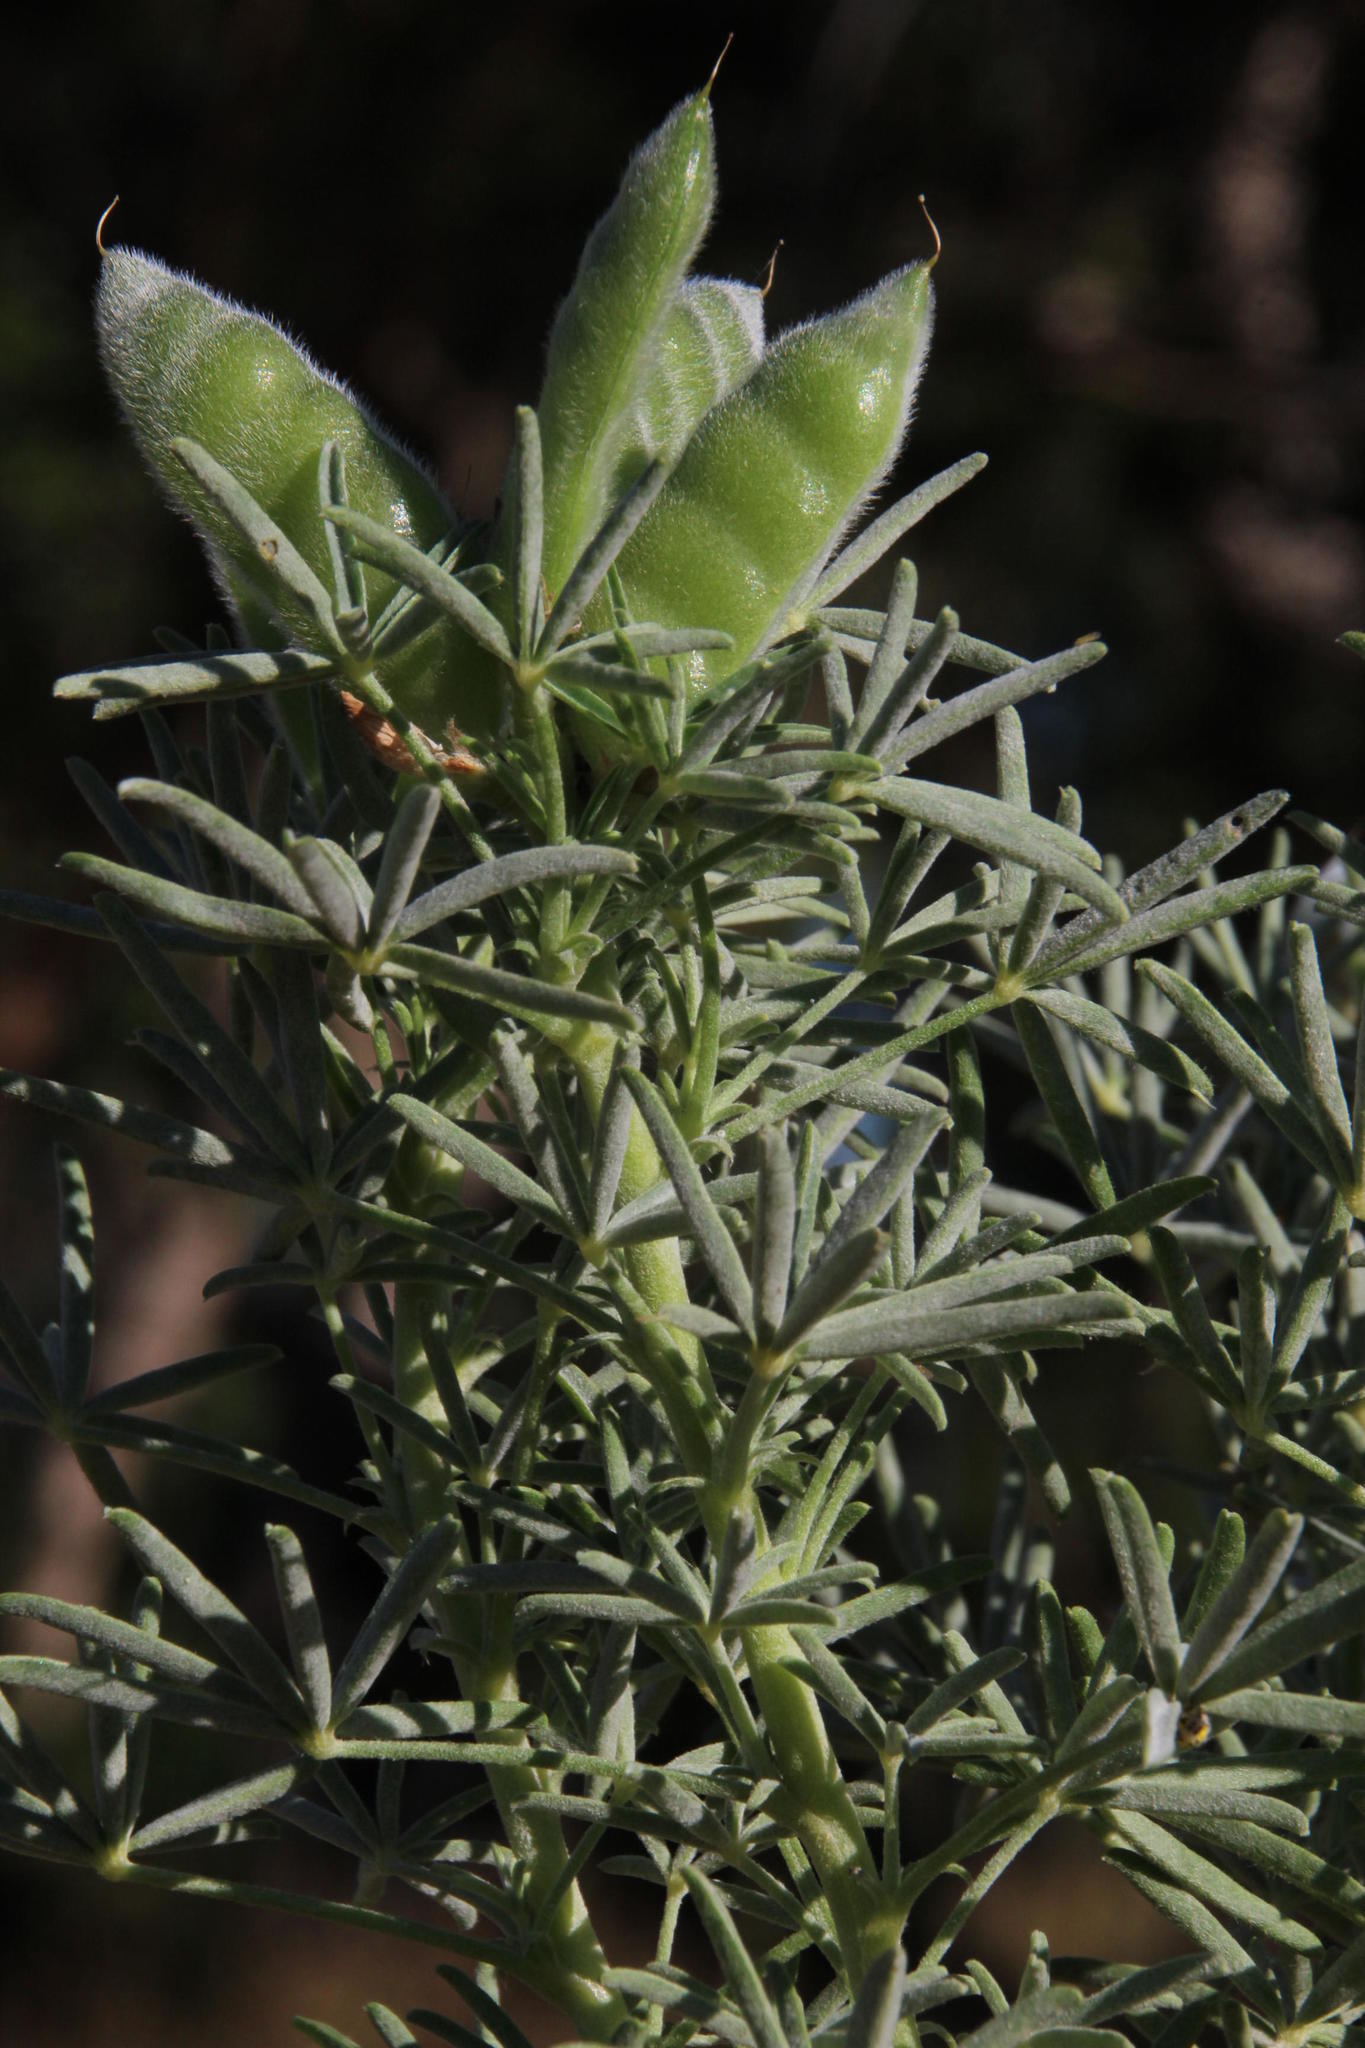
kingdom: Plantae
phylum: Tracheophyta
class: Magnoliopsida
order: Fabales
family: Fabaceae
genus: Lupinus
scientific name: Lupinus angustifolius
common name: Narrow-leaved lupin
